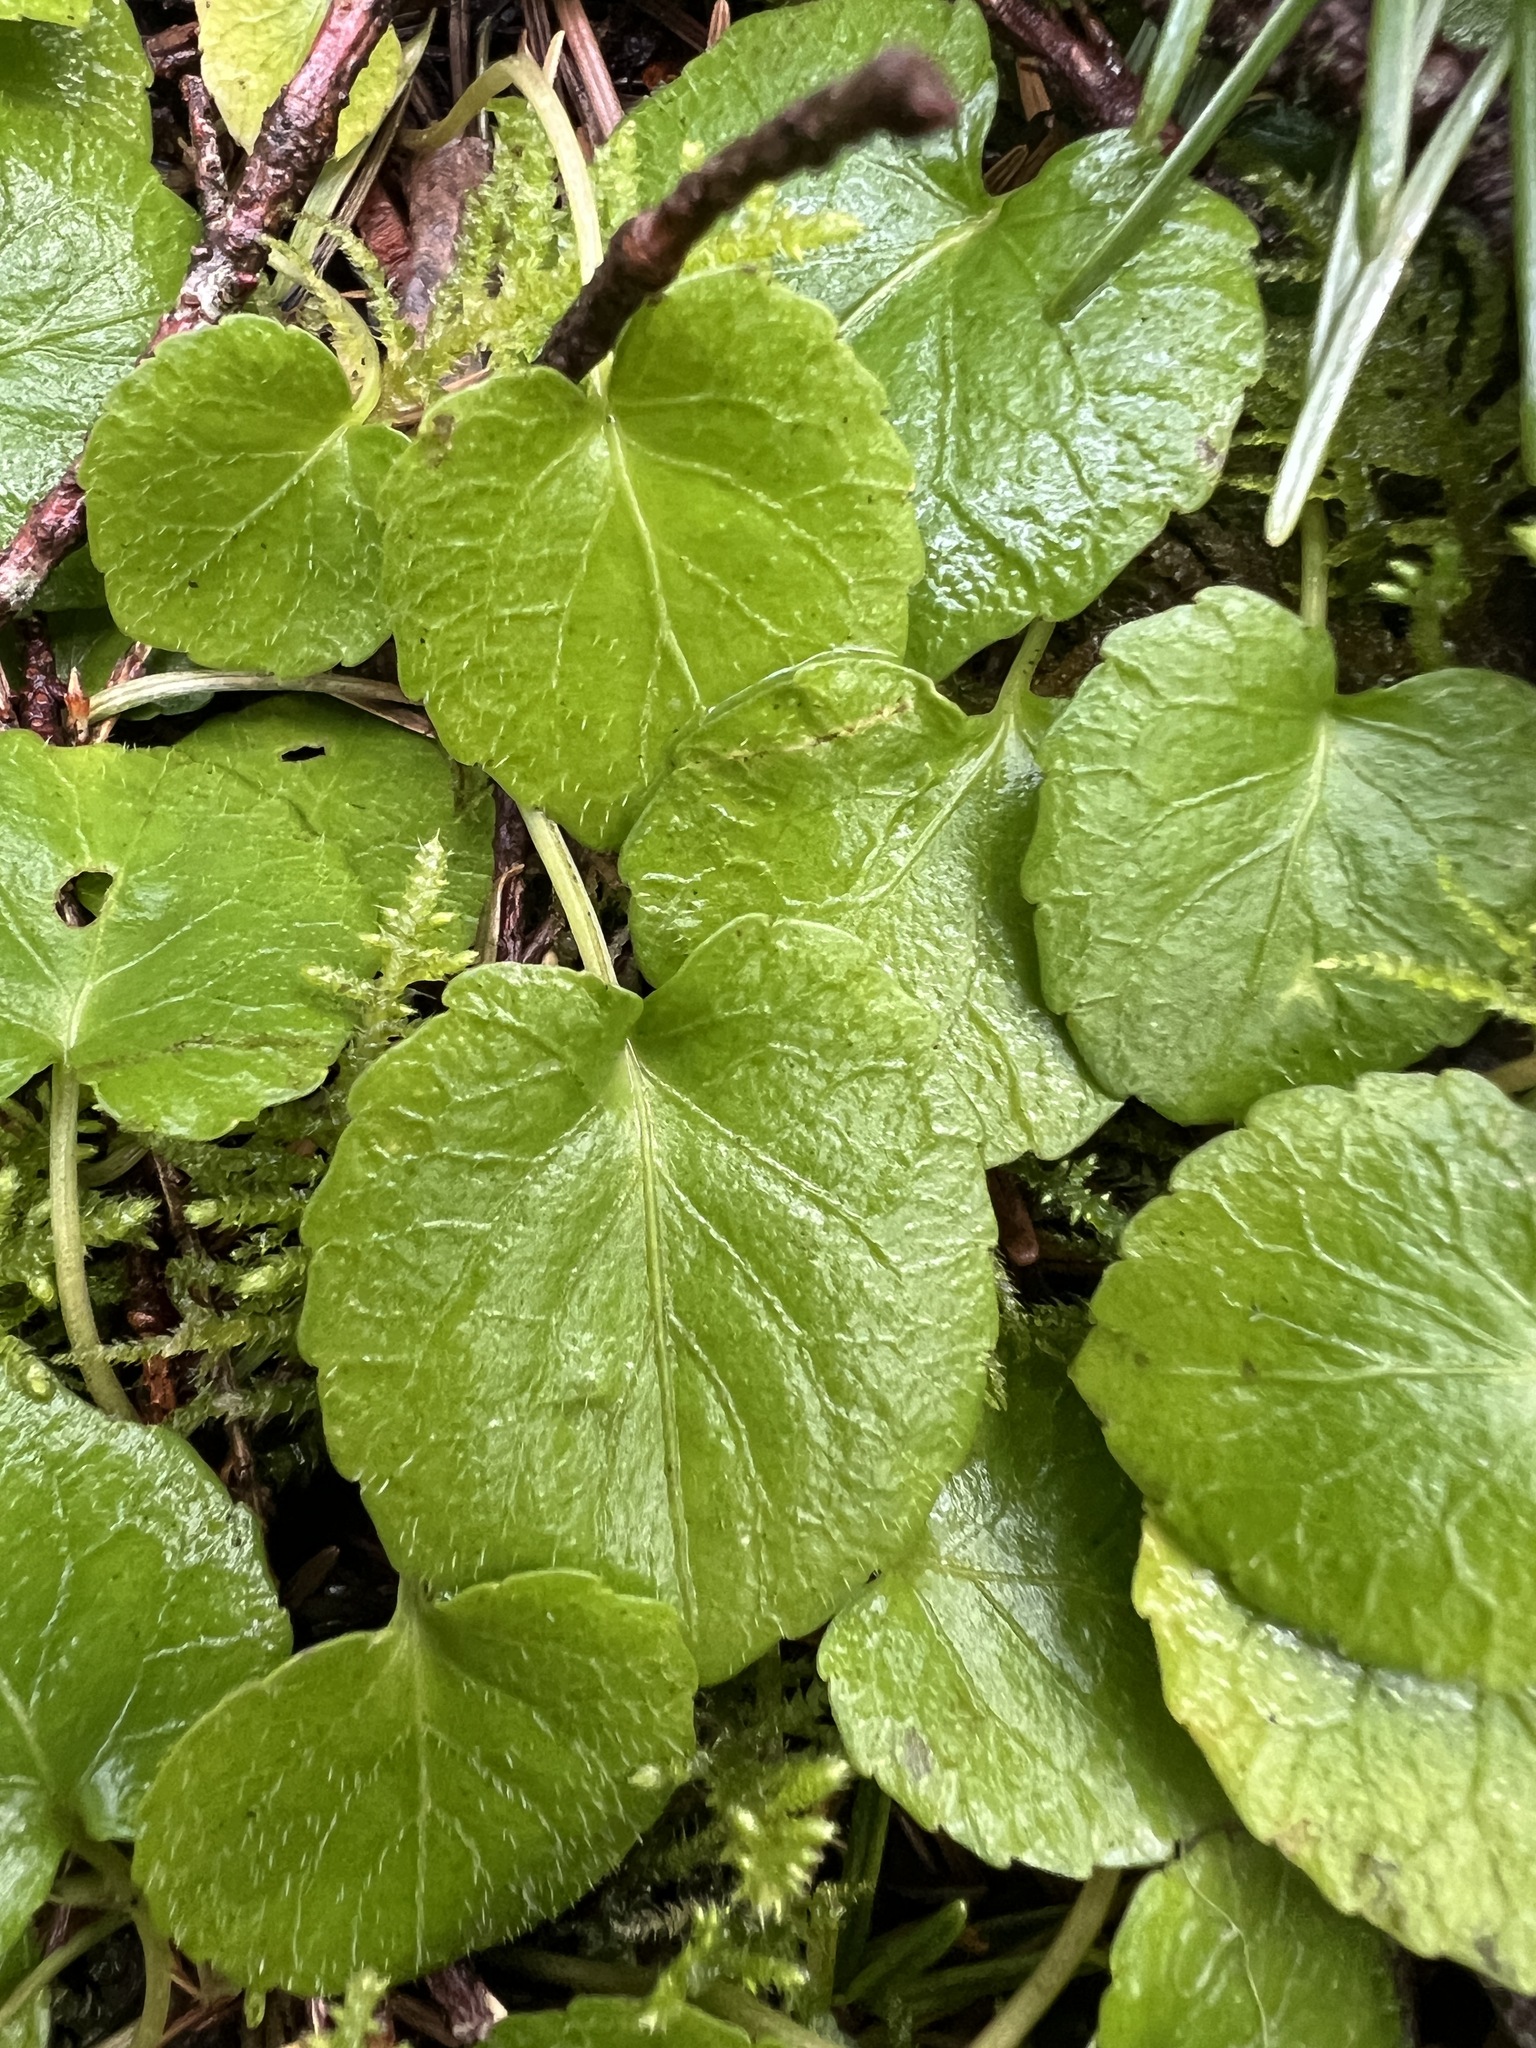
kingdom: Plantae
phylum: Tracheophyta
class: Magnoliopsida
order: Malpighiales
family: Violaceae
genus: Viola
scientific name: Viola sempervirens
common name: Evergreen violet
